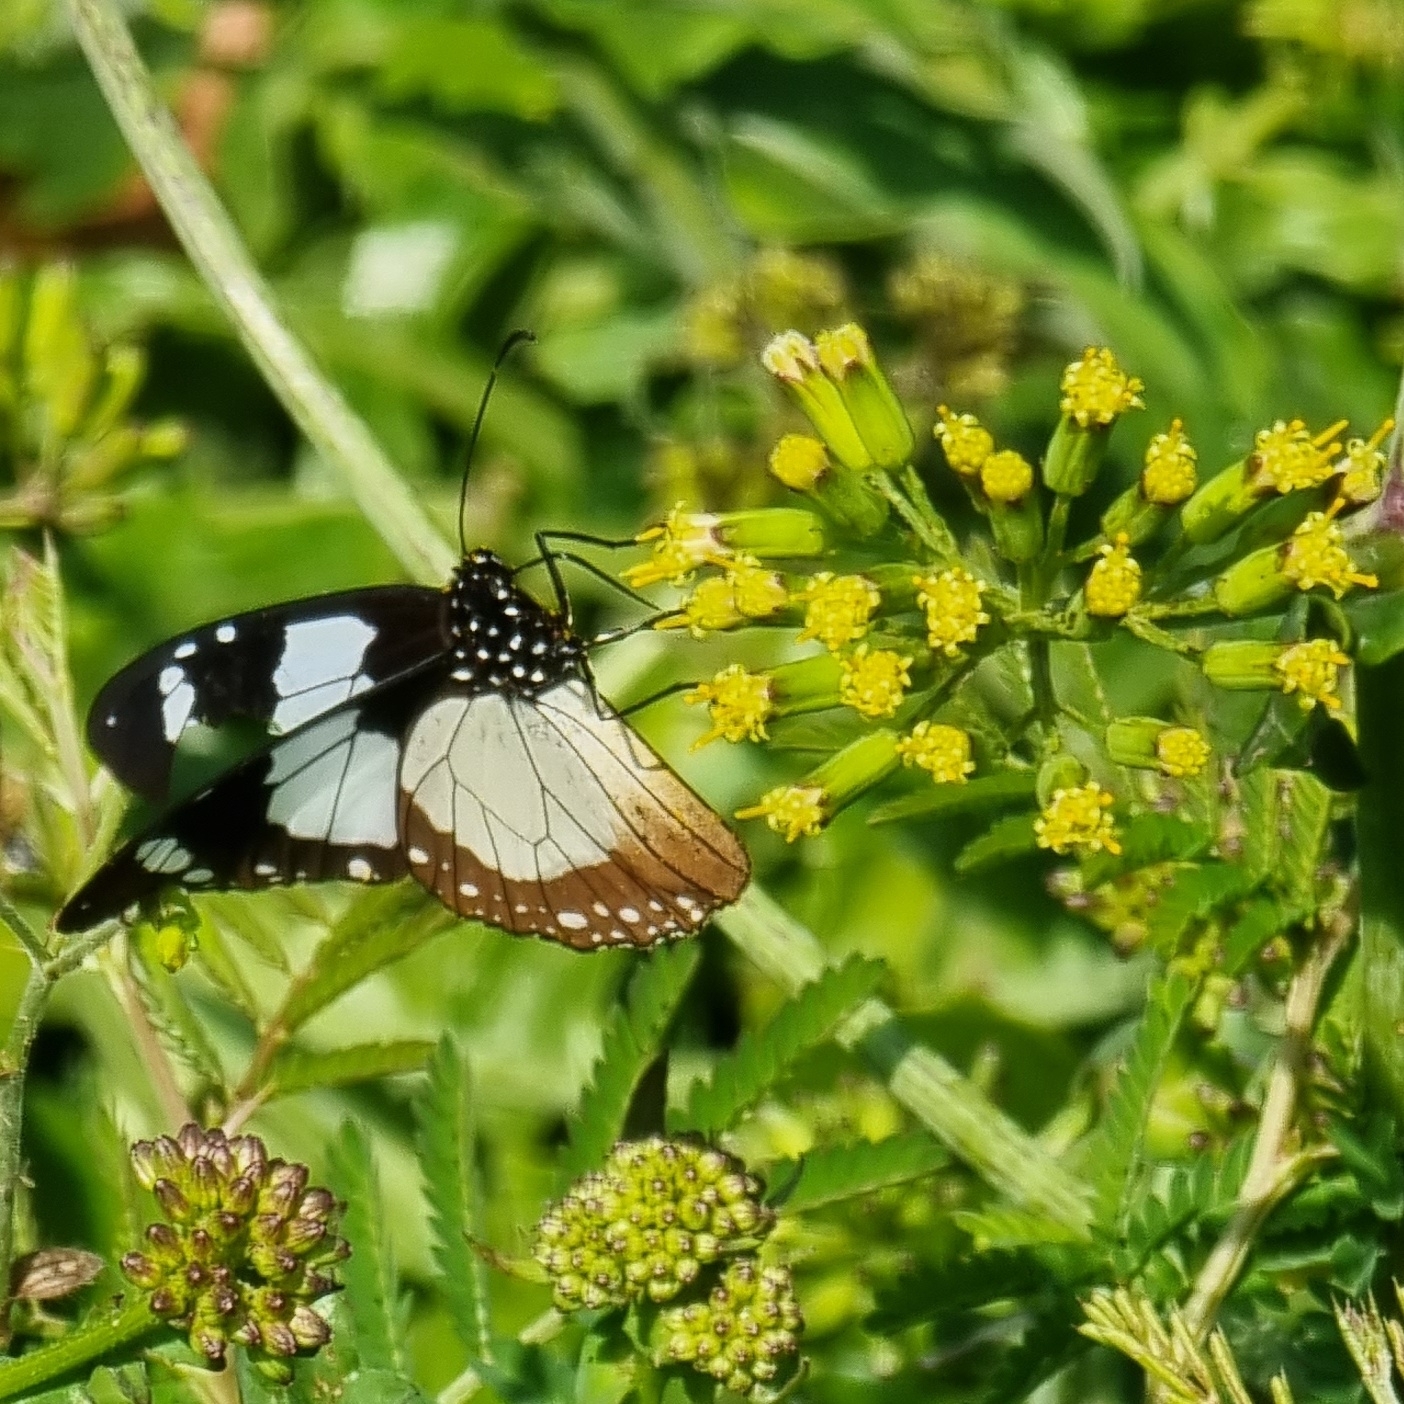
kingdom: Animalia
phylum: Arthropoda
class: Insecta
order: Lepidoptera
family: Nymphalidae
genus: Amauris
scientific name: Amauris ochlea
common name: Novice
